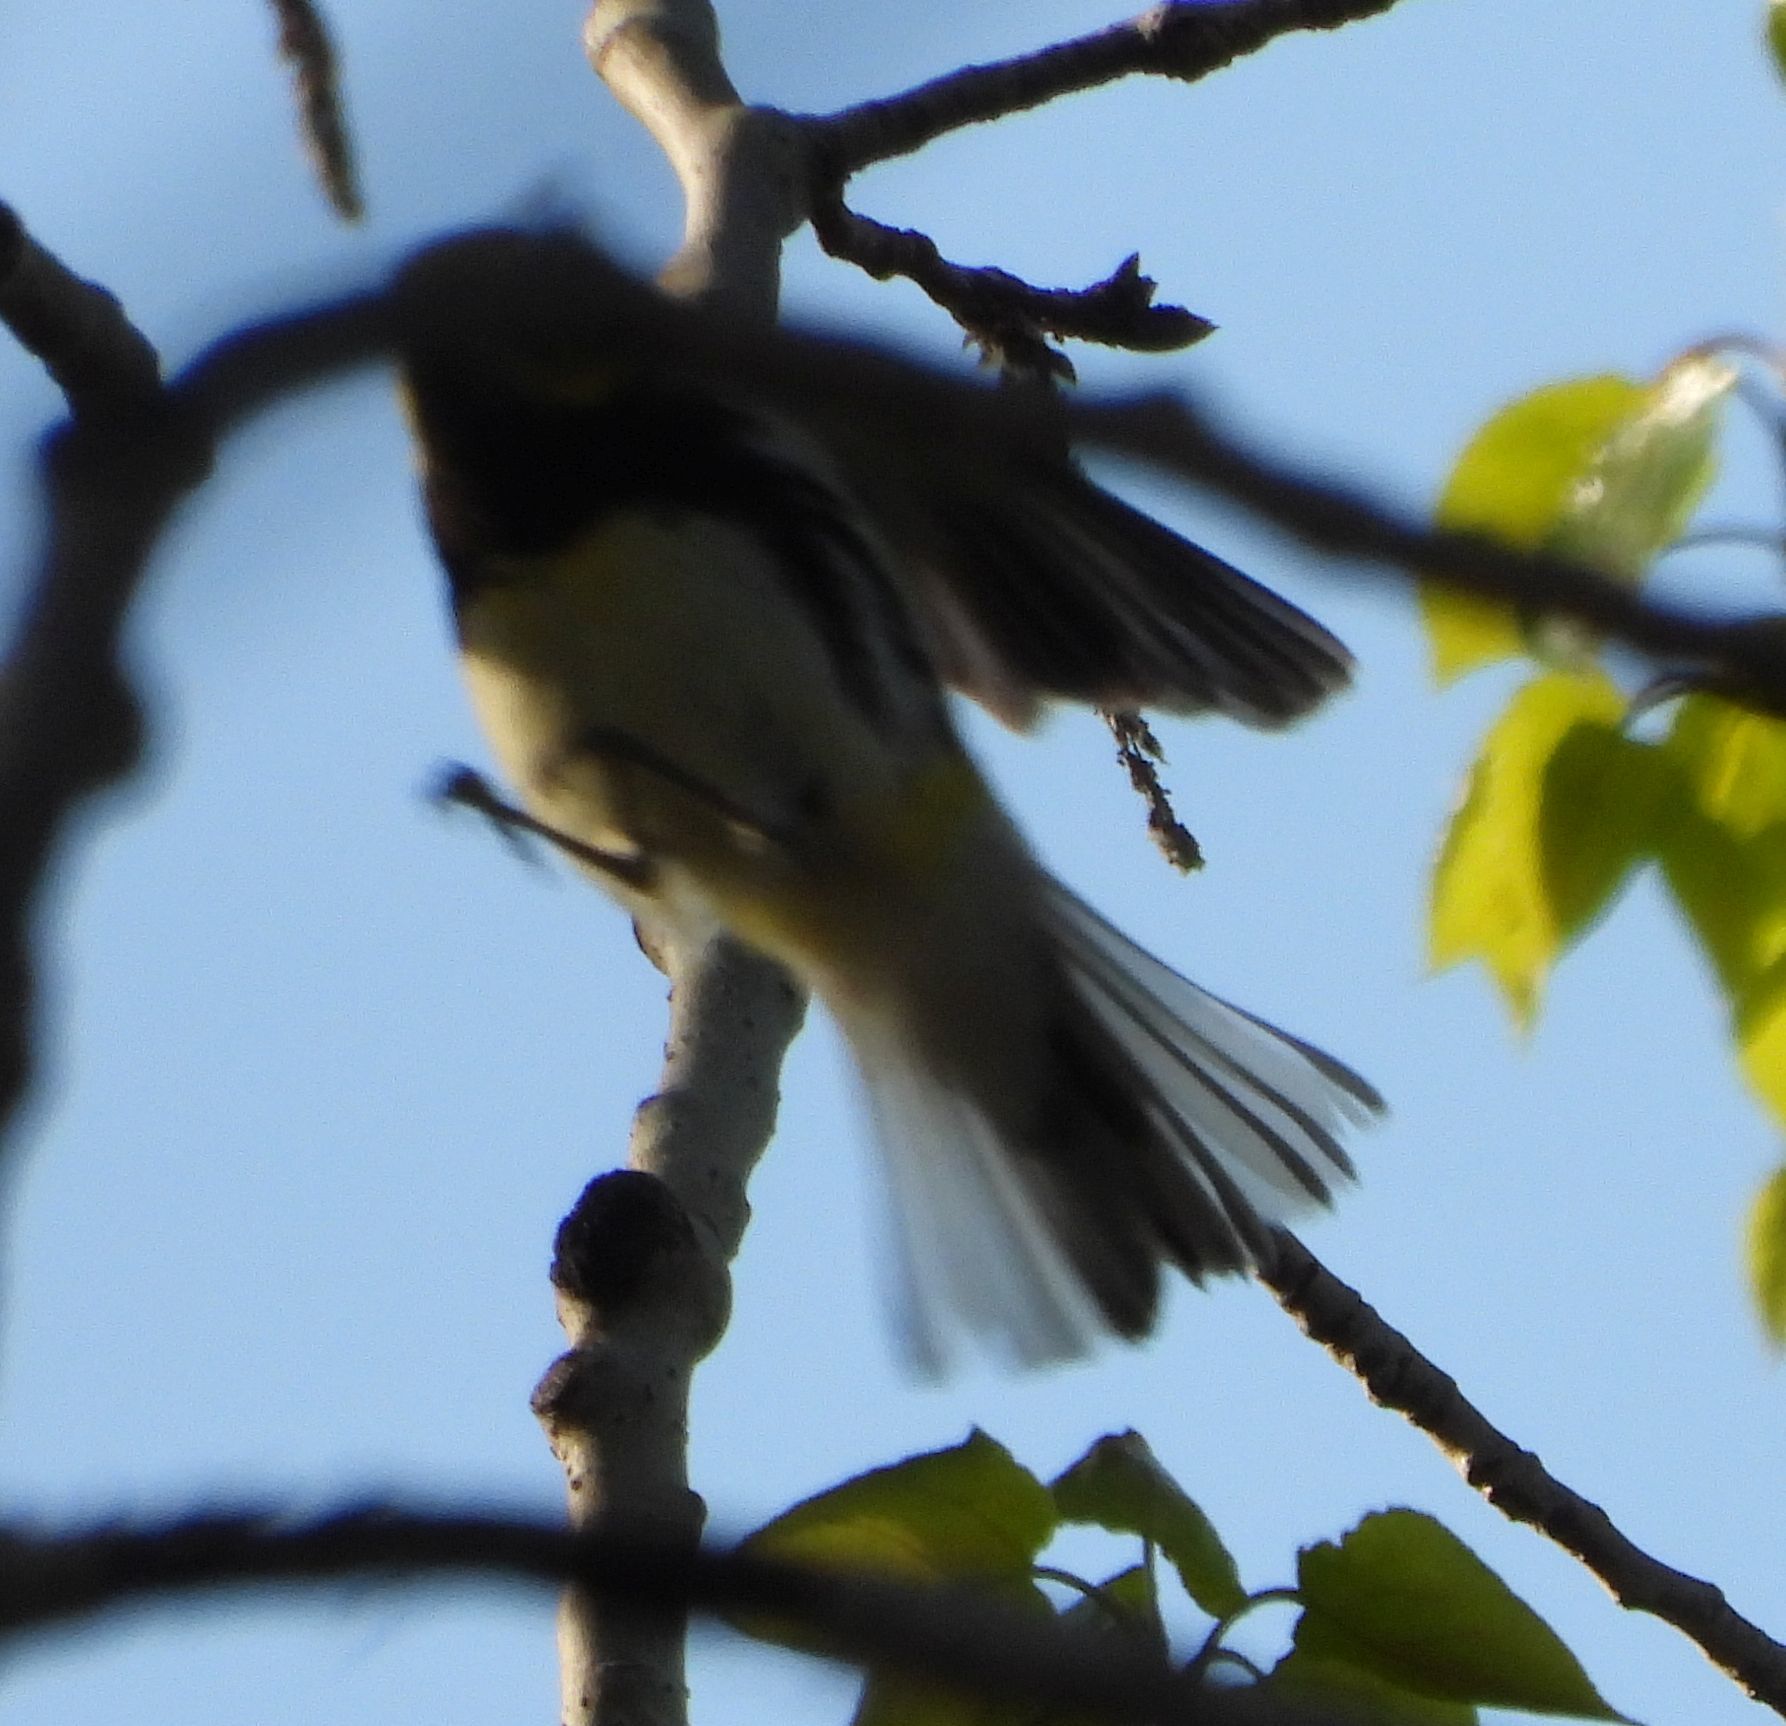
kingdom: Animalia
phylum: Chordata
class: Aves
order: Passeriformes
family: Parulidae
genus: Setophaga
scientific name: Setophaga virens
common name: Black-throated green warbler
